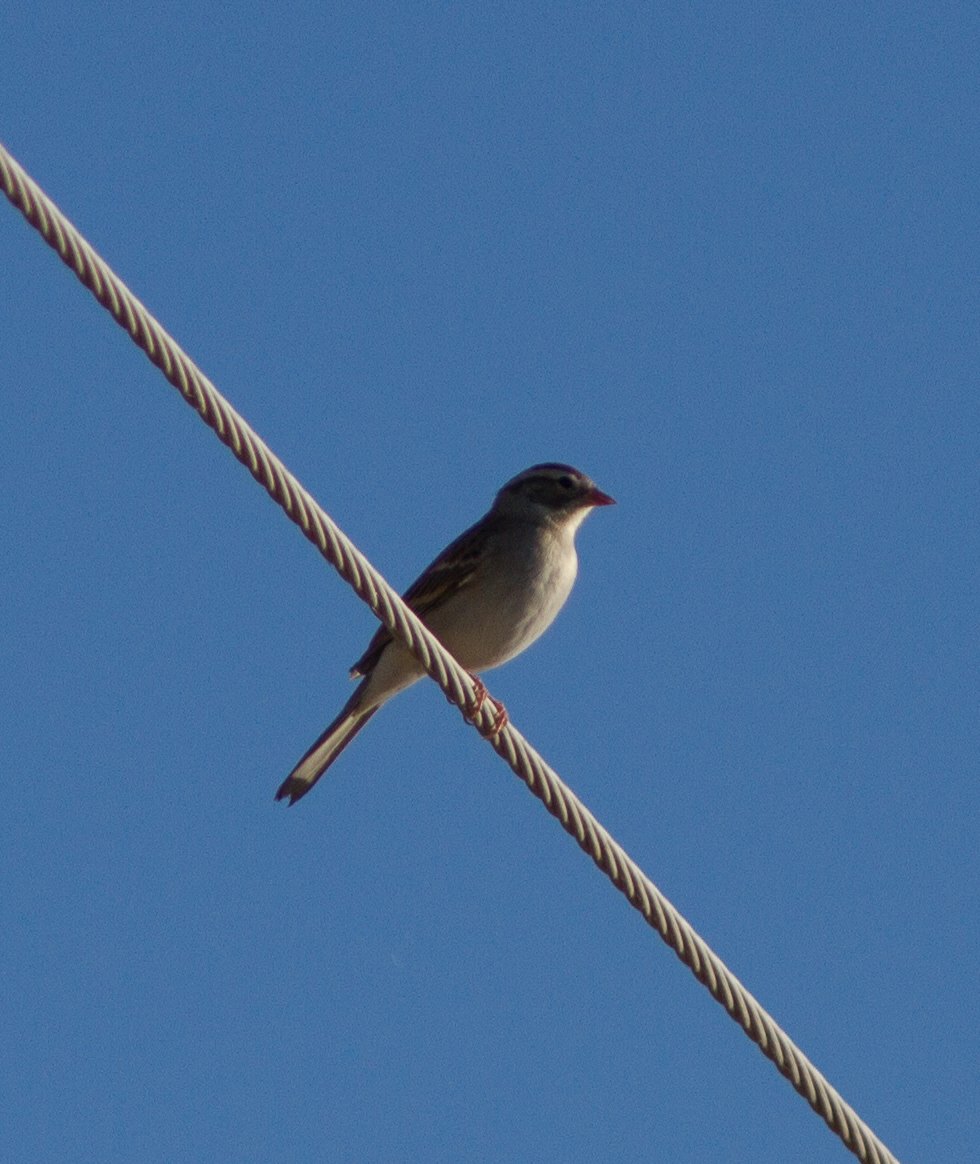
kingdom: Animalia
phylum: Chordata
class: Aves
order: Passeriformes
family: Passerellidae
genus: Spizella
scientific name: Spizella passerina
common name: Chipping sparrow
